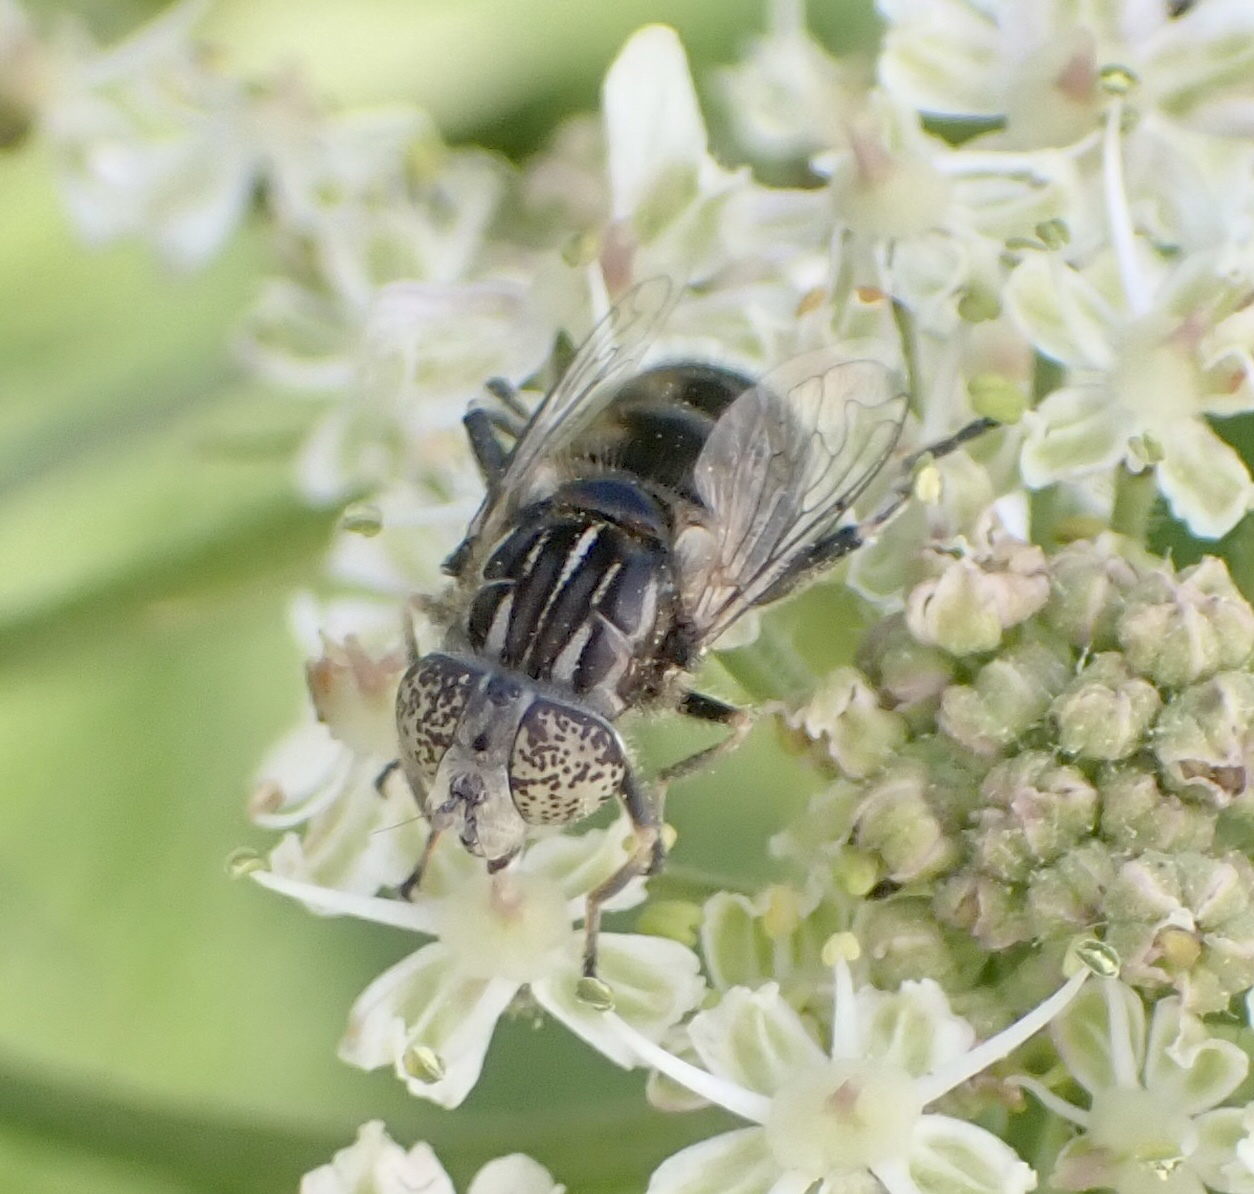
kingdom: Animalia
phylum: Arthropoda
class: Insecta
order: Diptera
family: Syrphidae
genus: Eristalinus
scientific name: Eristalinus sepulchralis
